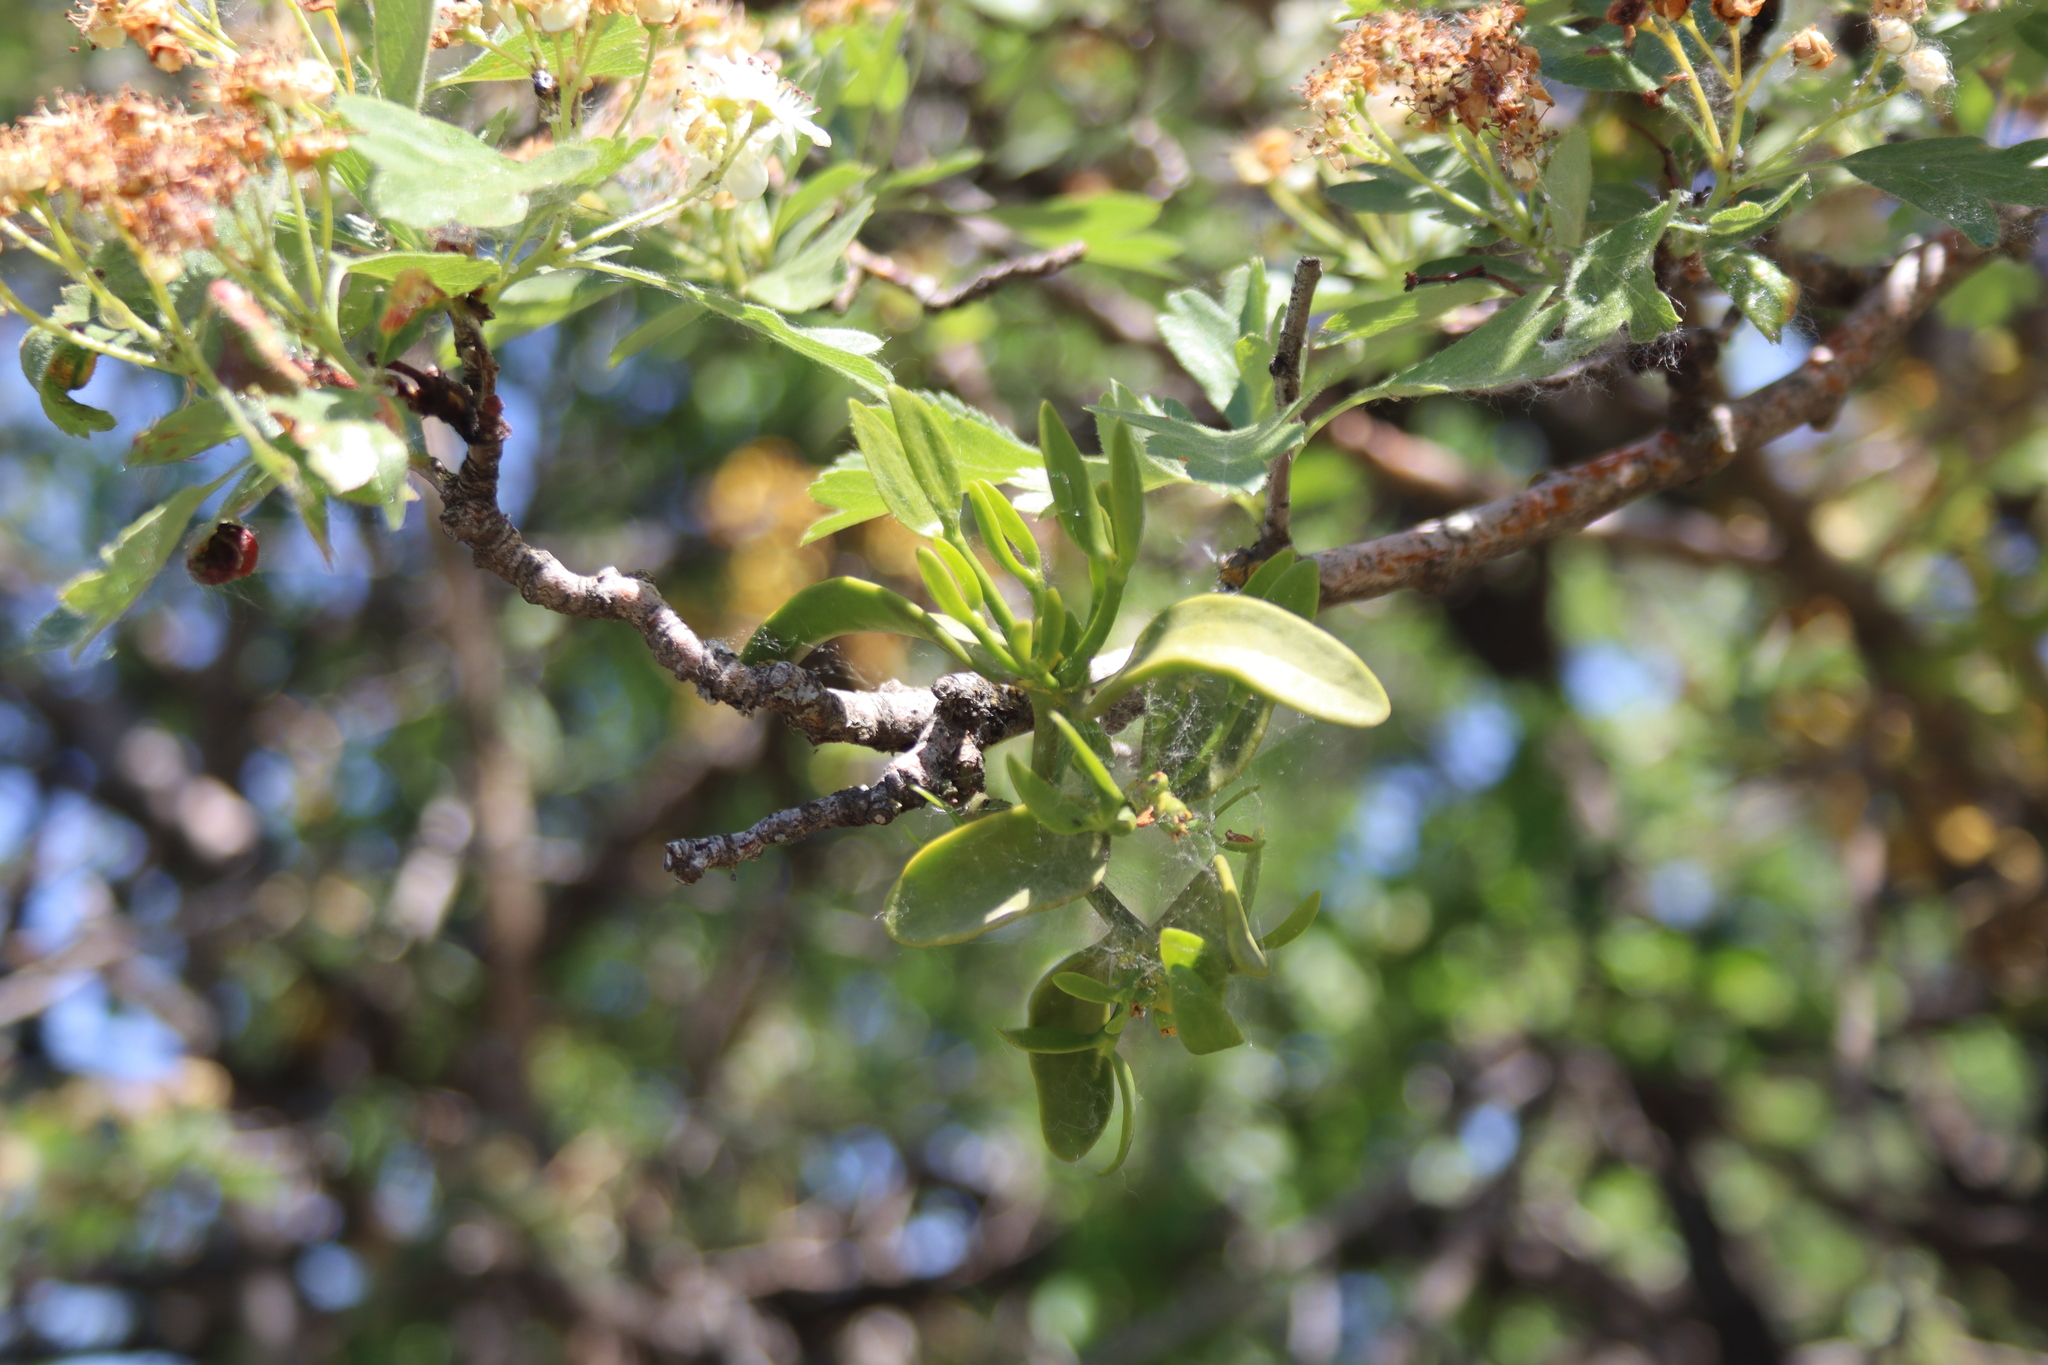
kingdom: Plantae
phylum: Tracheophyta
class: Magnoliopsida
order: Santalales
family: Viscaceae
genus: Viscum
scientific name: Viscum album
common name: Mistletoe
